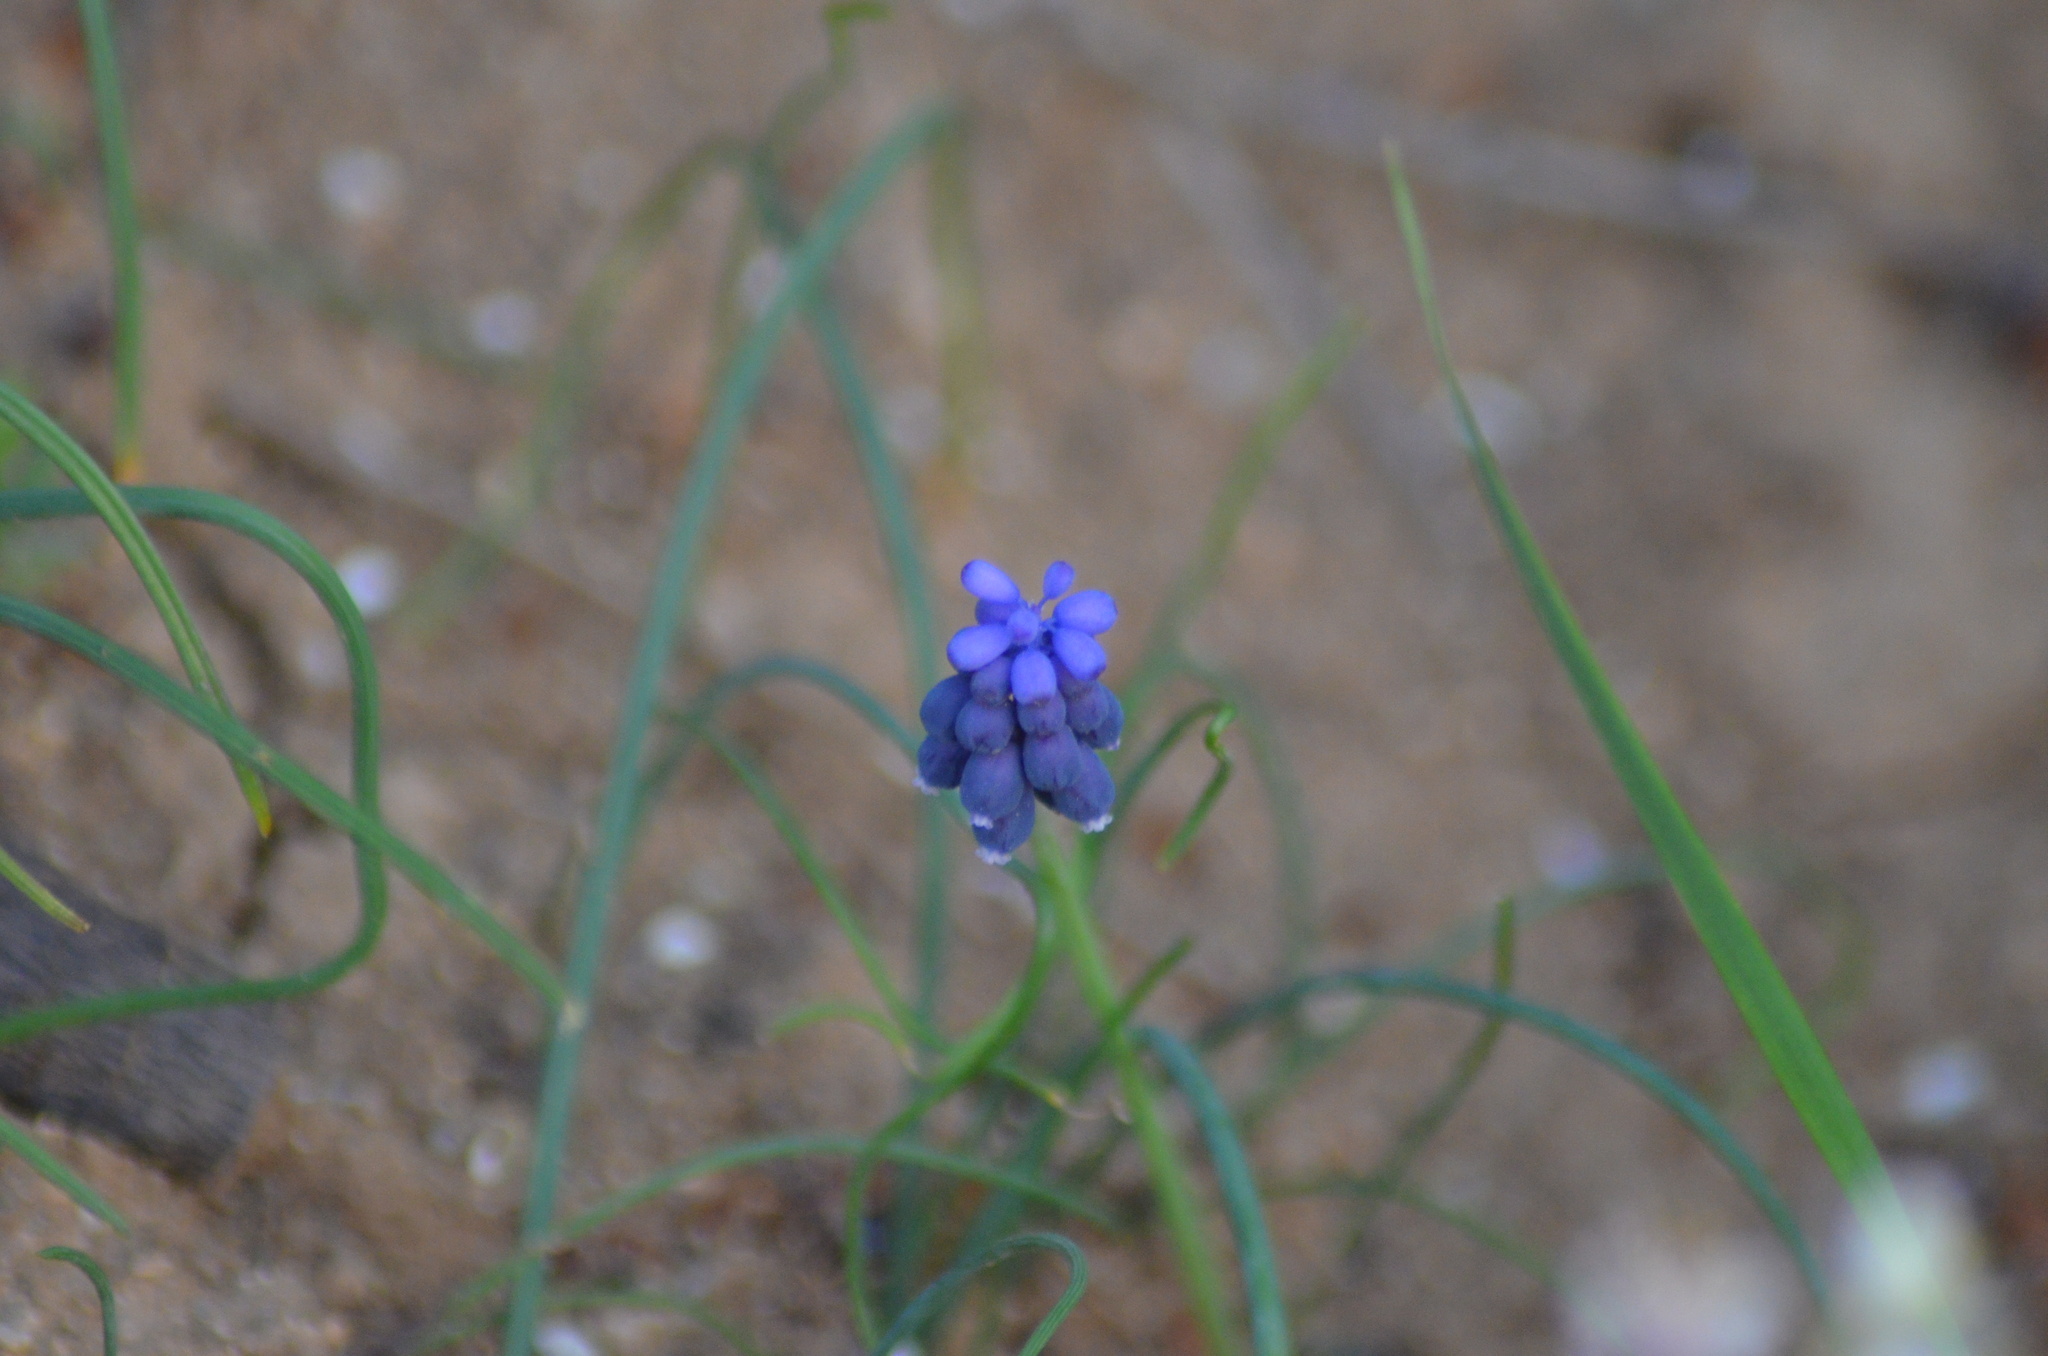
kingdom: Plantae
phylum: Tracheophyta
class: Liliopsida
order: Asparagales
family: Asparagaceae
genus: Muscari
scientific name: Muscari neglectum
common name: Grape-hyacinth
